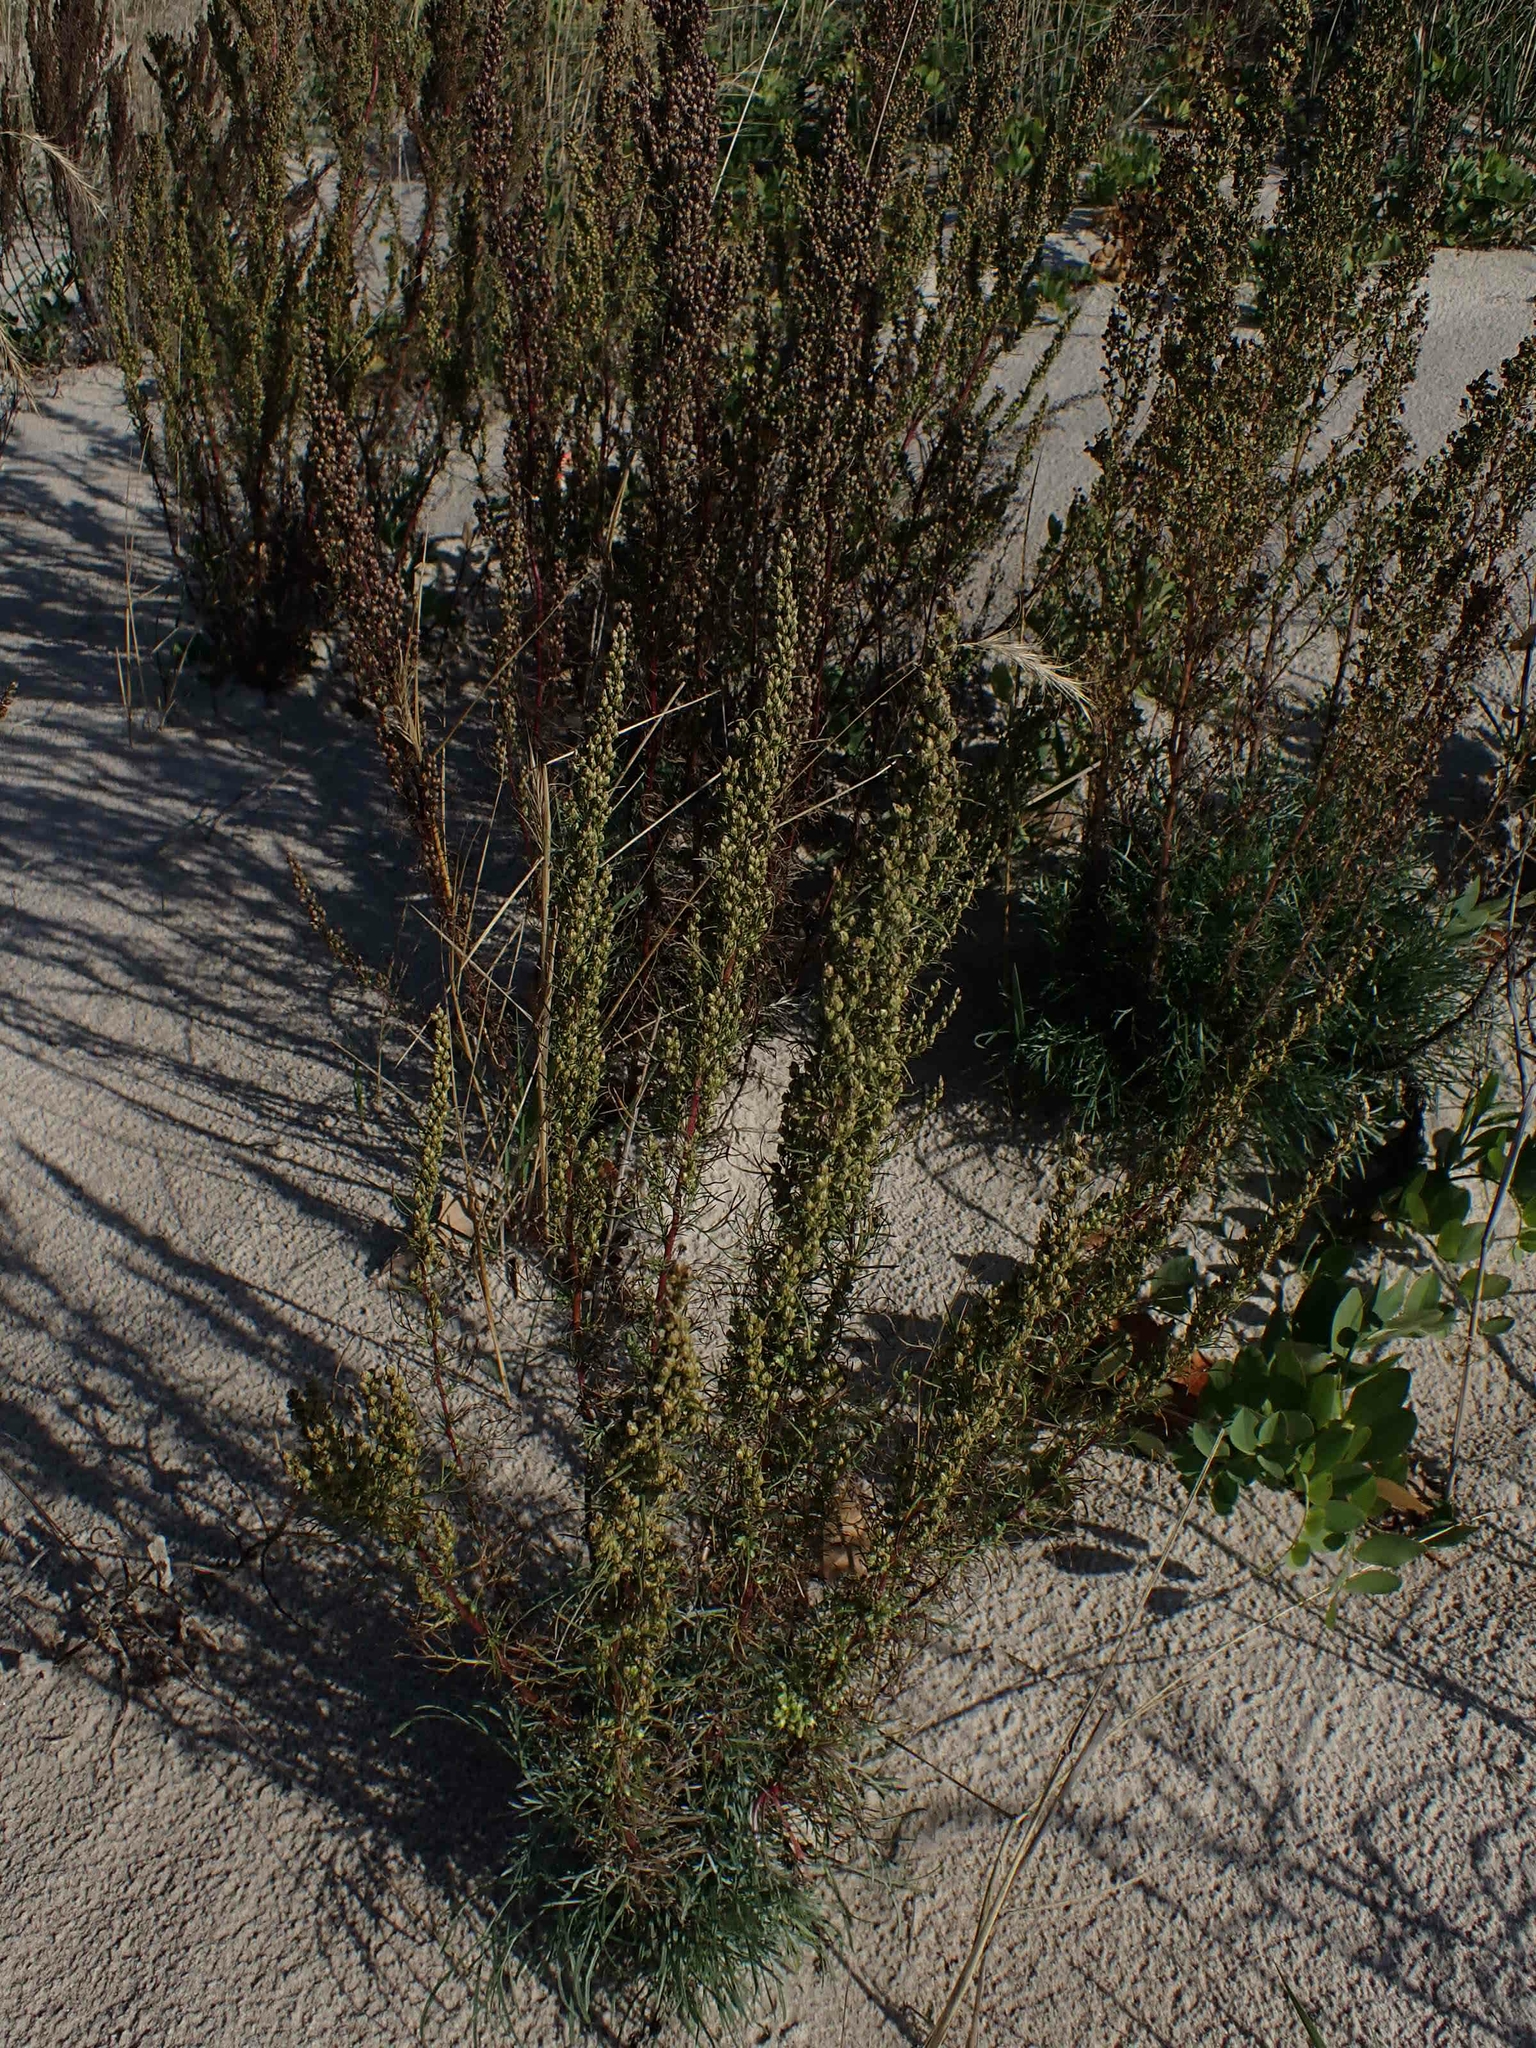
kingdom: Plantae
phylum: Tracheophyta
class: Magnoliopsida
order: Asterales
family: Asteraceae
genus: Artemisia
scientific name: Artemisia campestris
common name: Field wormwood
